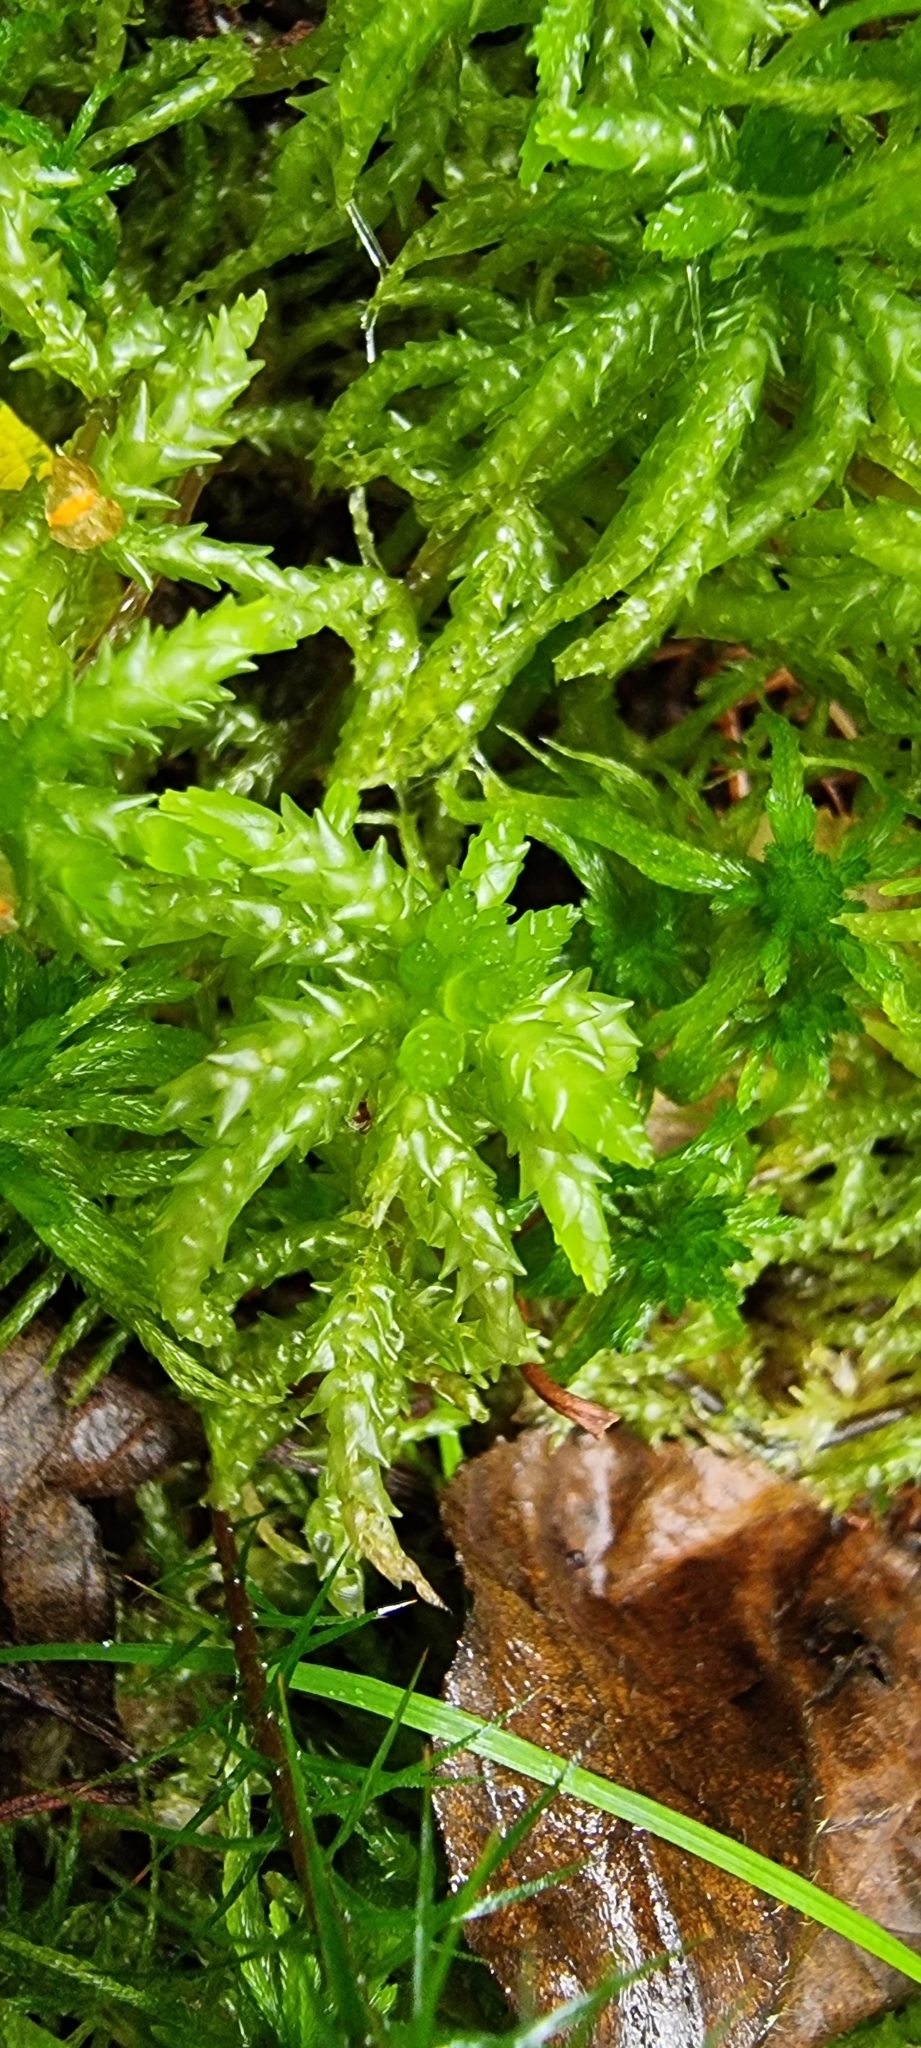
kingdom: Plantae
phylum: Bryophyta
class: Sphagnopsida
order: Sphagnales
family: Sphagnaceae
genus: Sphagnum
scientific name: Sphagnum palustre
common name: Blunt-leaved bog-moss
